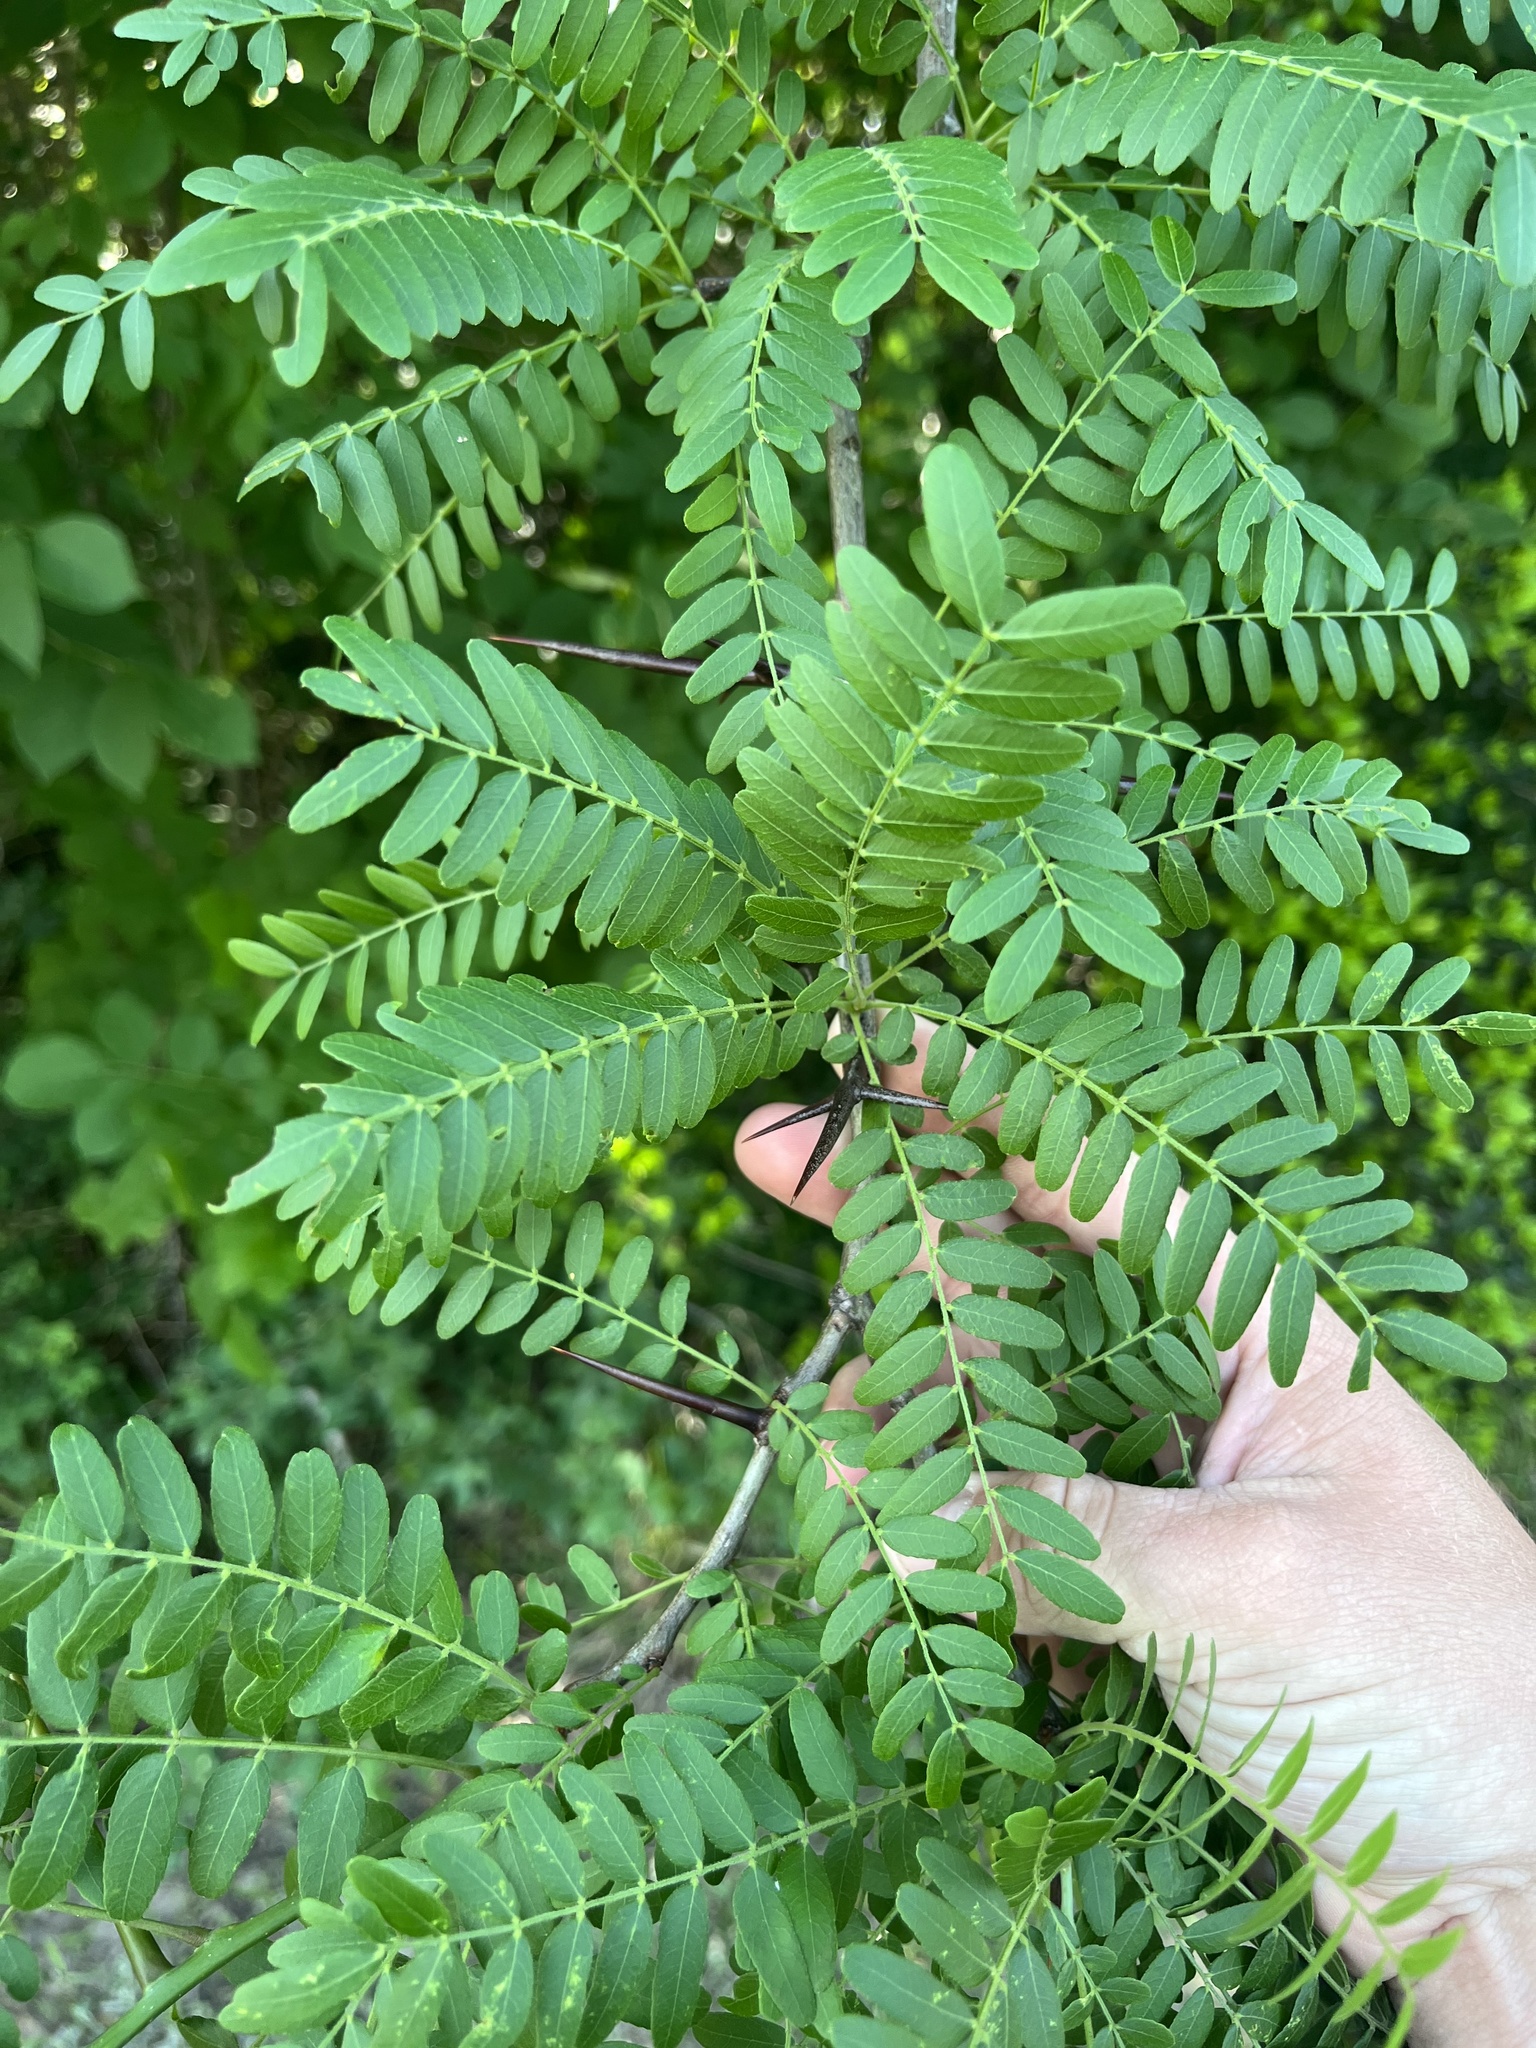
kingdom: Plantae
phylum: Tracheophyta
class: Magnoliopsida
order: Fabales
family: Fabaceae
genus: Gleditsia
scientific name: Gleditsia triacanthos
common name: Common honeylocust
